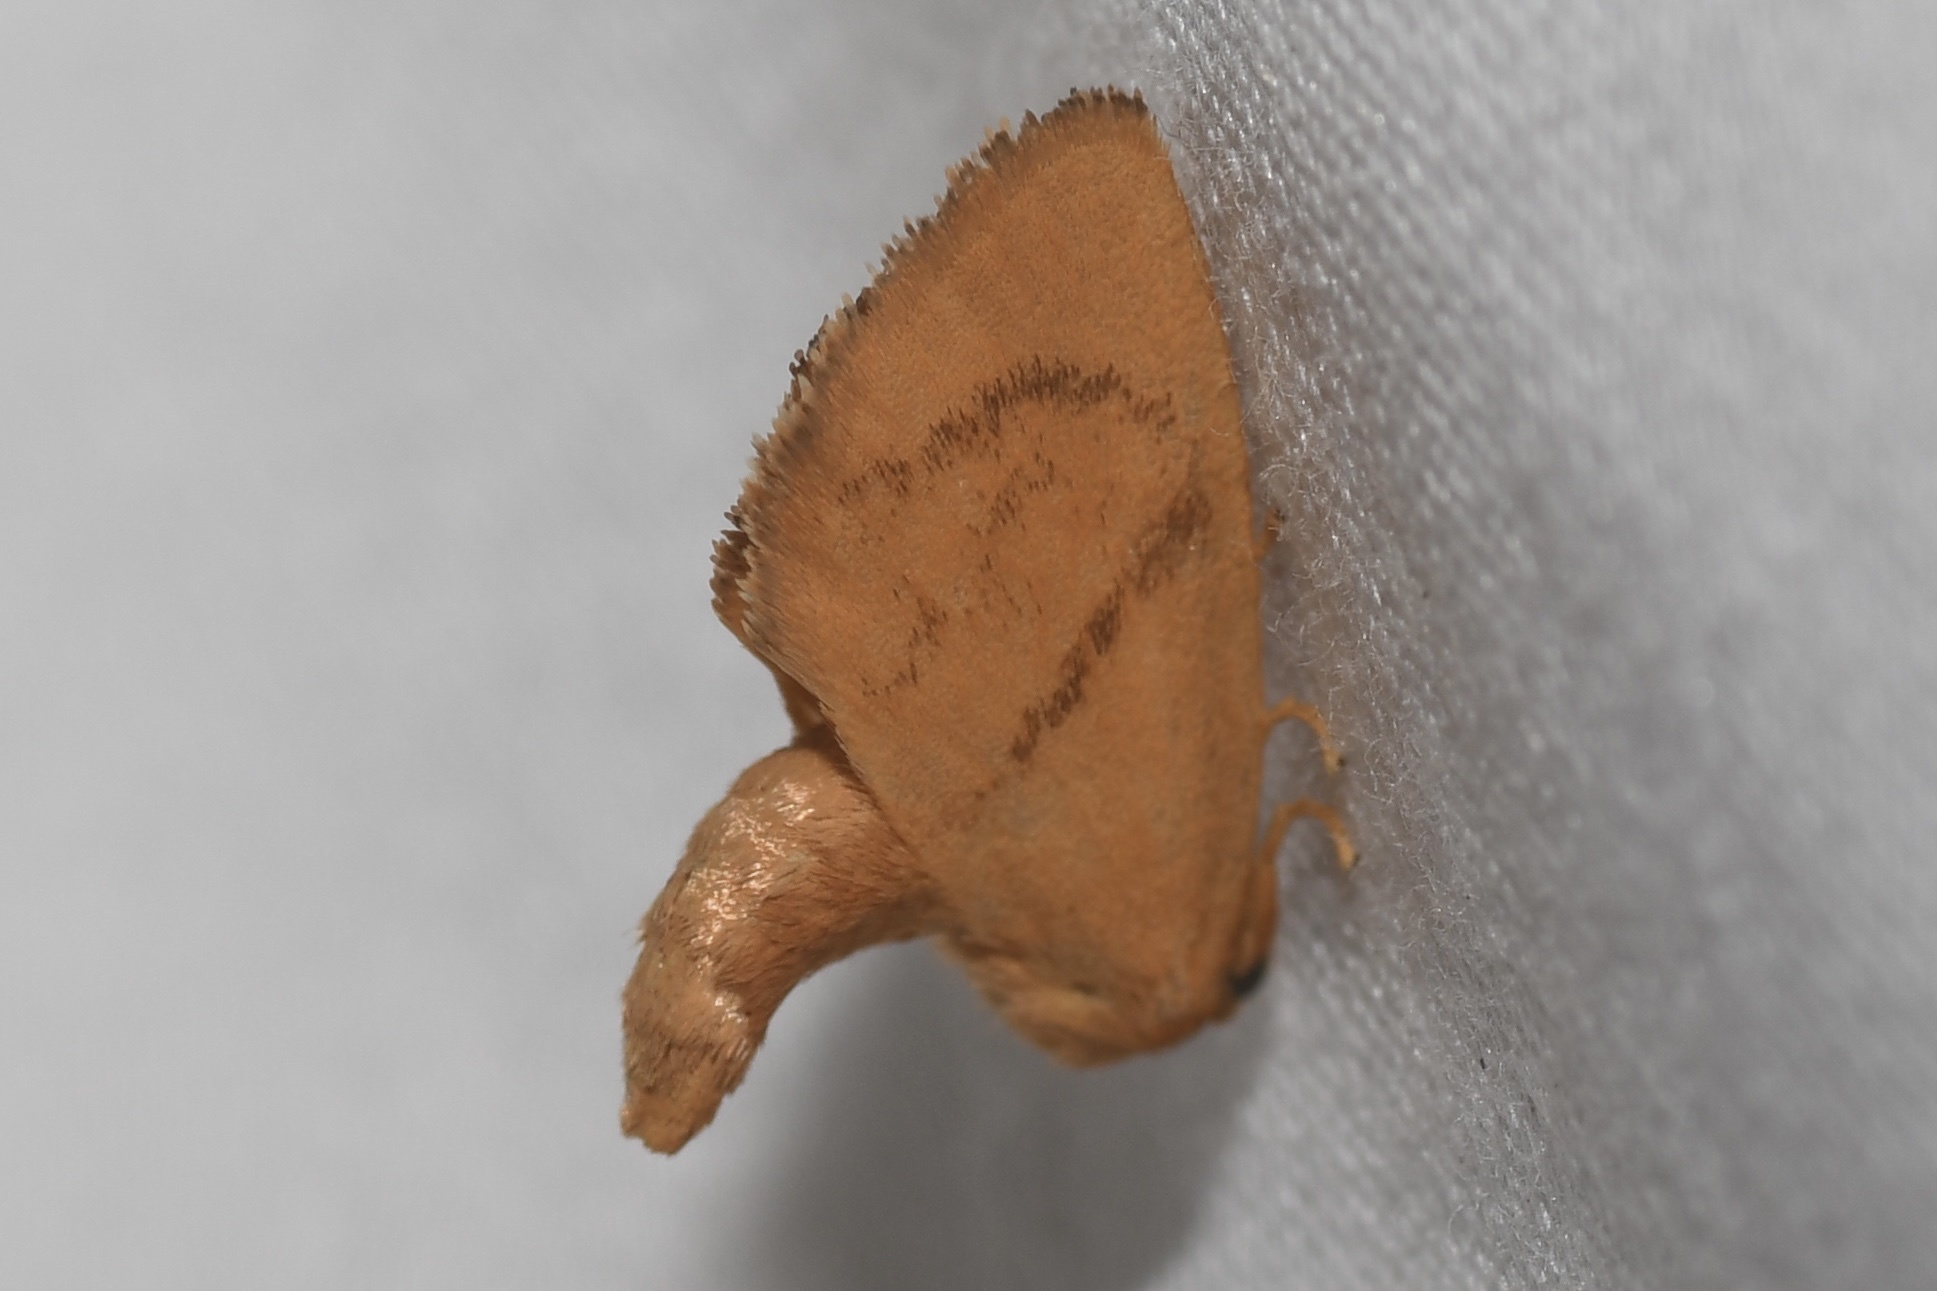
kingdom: Animalia
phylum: Arthropoda
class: Insecta
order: Lepidoptera
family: Limacodidae
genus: Tortricidia
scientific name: Tortricidia flexuosa
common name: Abbreviated button slug moth
